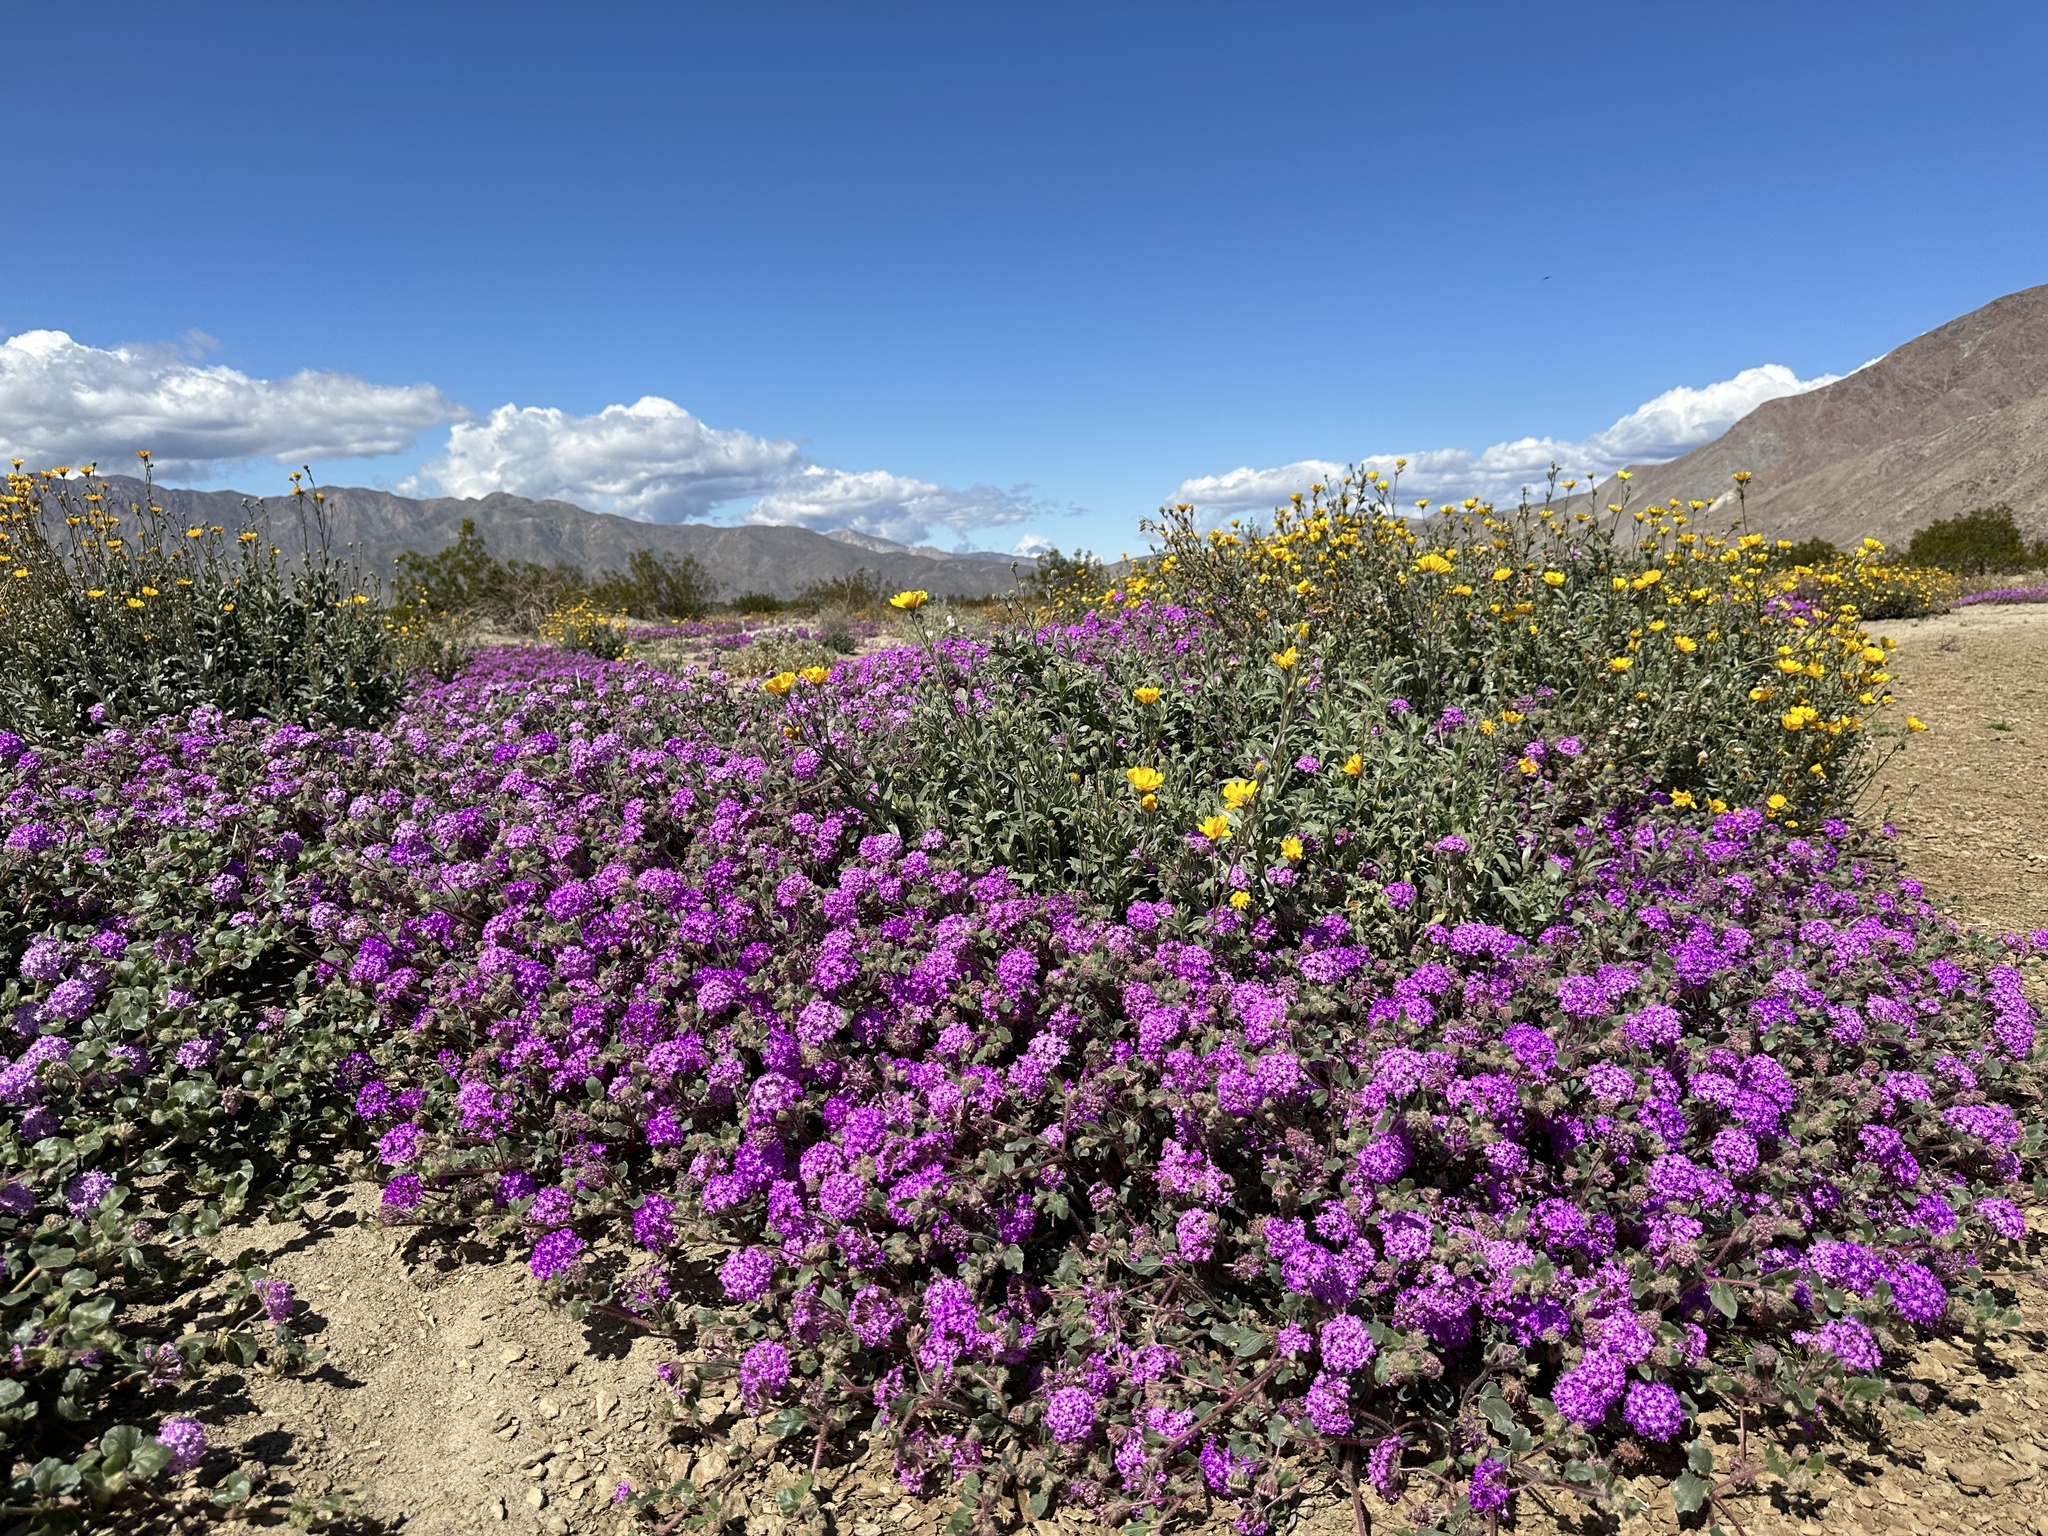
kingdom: Plantae
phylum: Tracheophyta
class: Magnoliopsida
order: Caryophyllales
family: Nyctaginaceae
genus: Abronia
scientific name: Abronia villosa
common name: Desert sand-verbena
